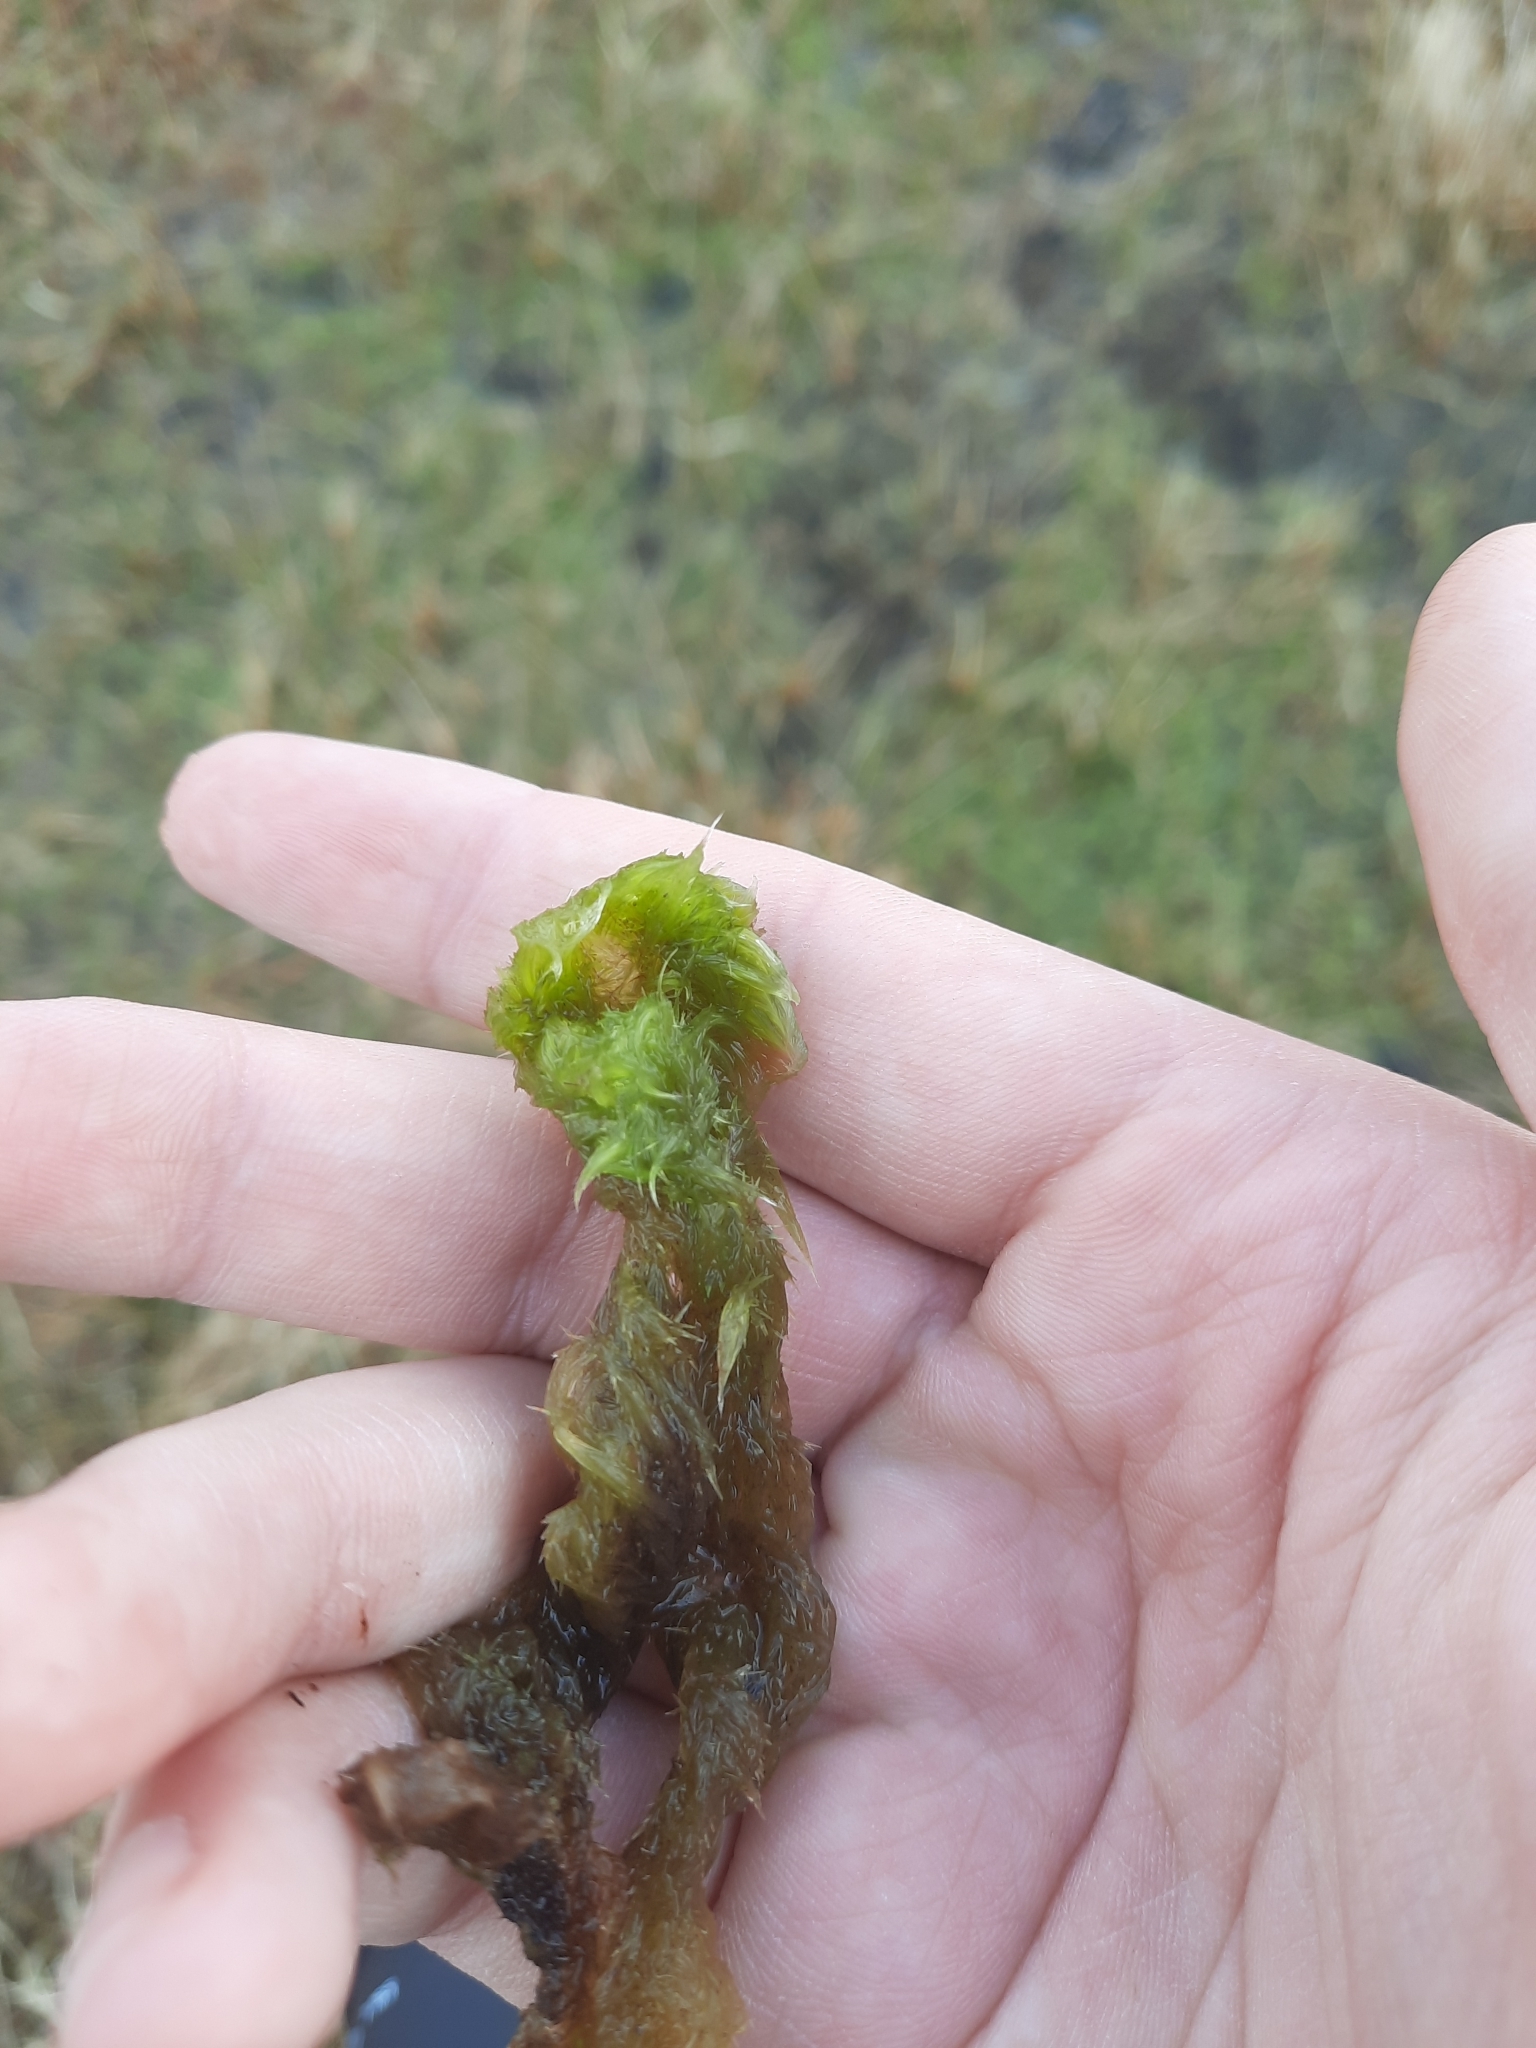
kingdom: Plantae
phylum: Bryophyta
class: Sphagnopsida
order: Sphagnales
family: Sphagnaceae
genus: Sphagnum
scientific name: Sphagnum cuspidatum
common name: Feathery peat moss
